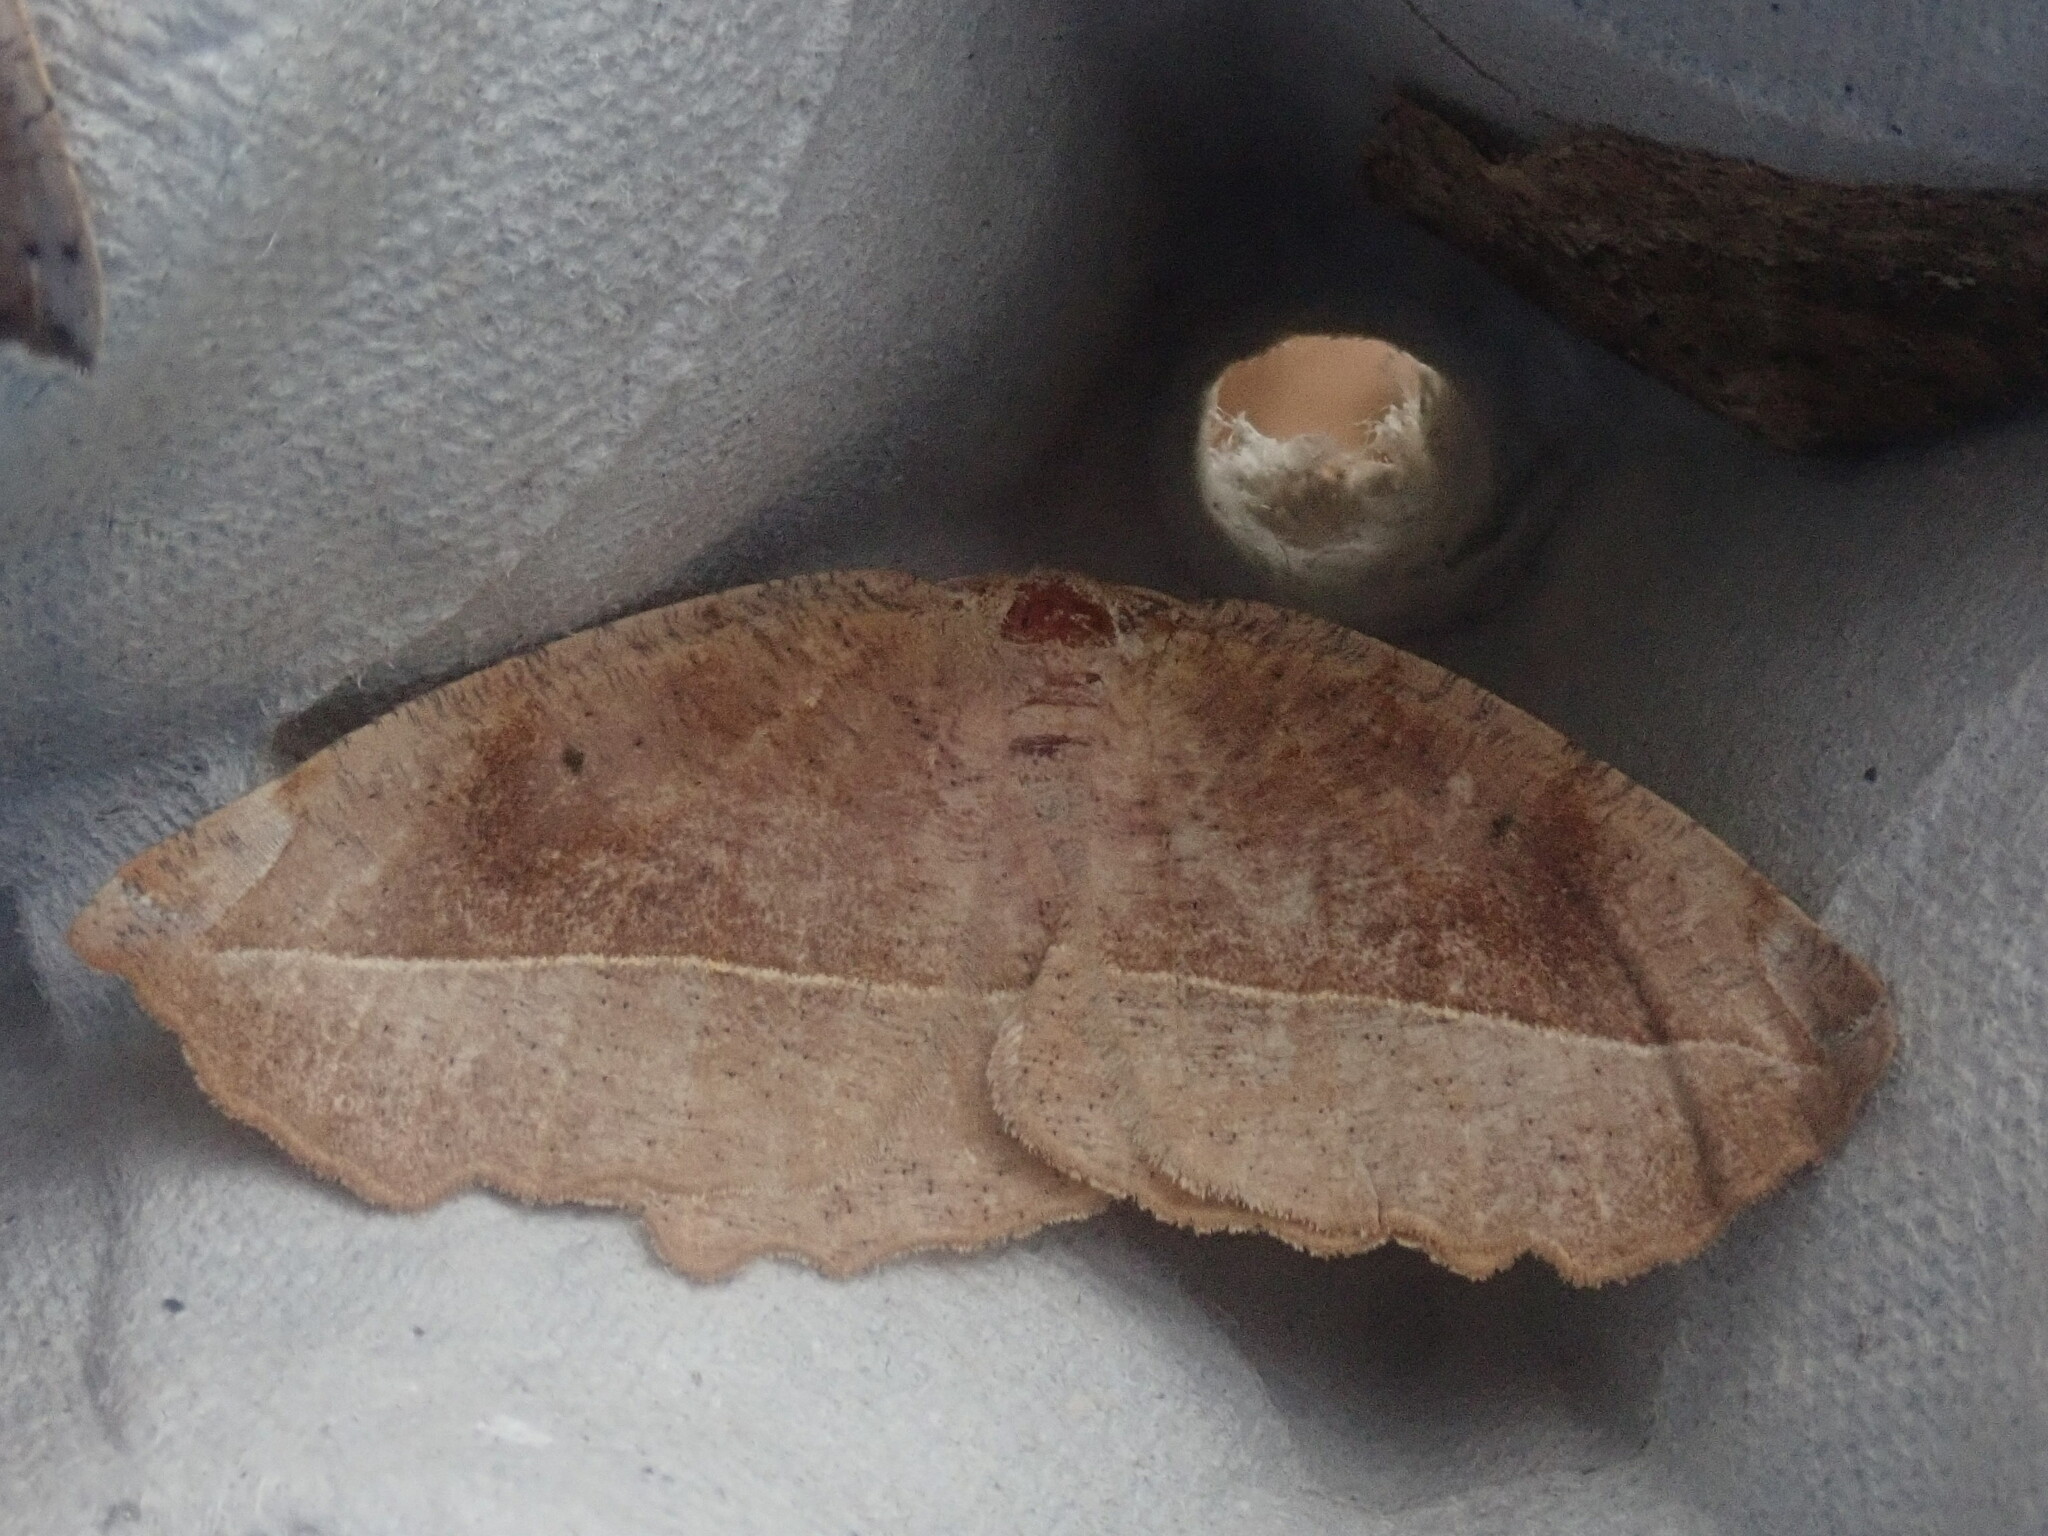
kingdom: Animalia
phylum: Arthropoda
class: Insecta
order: Lepidoptera
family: Geometridae
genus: Eutrapela
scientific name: Eutrapela clemataria
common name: Curved-toothed geometer
